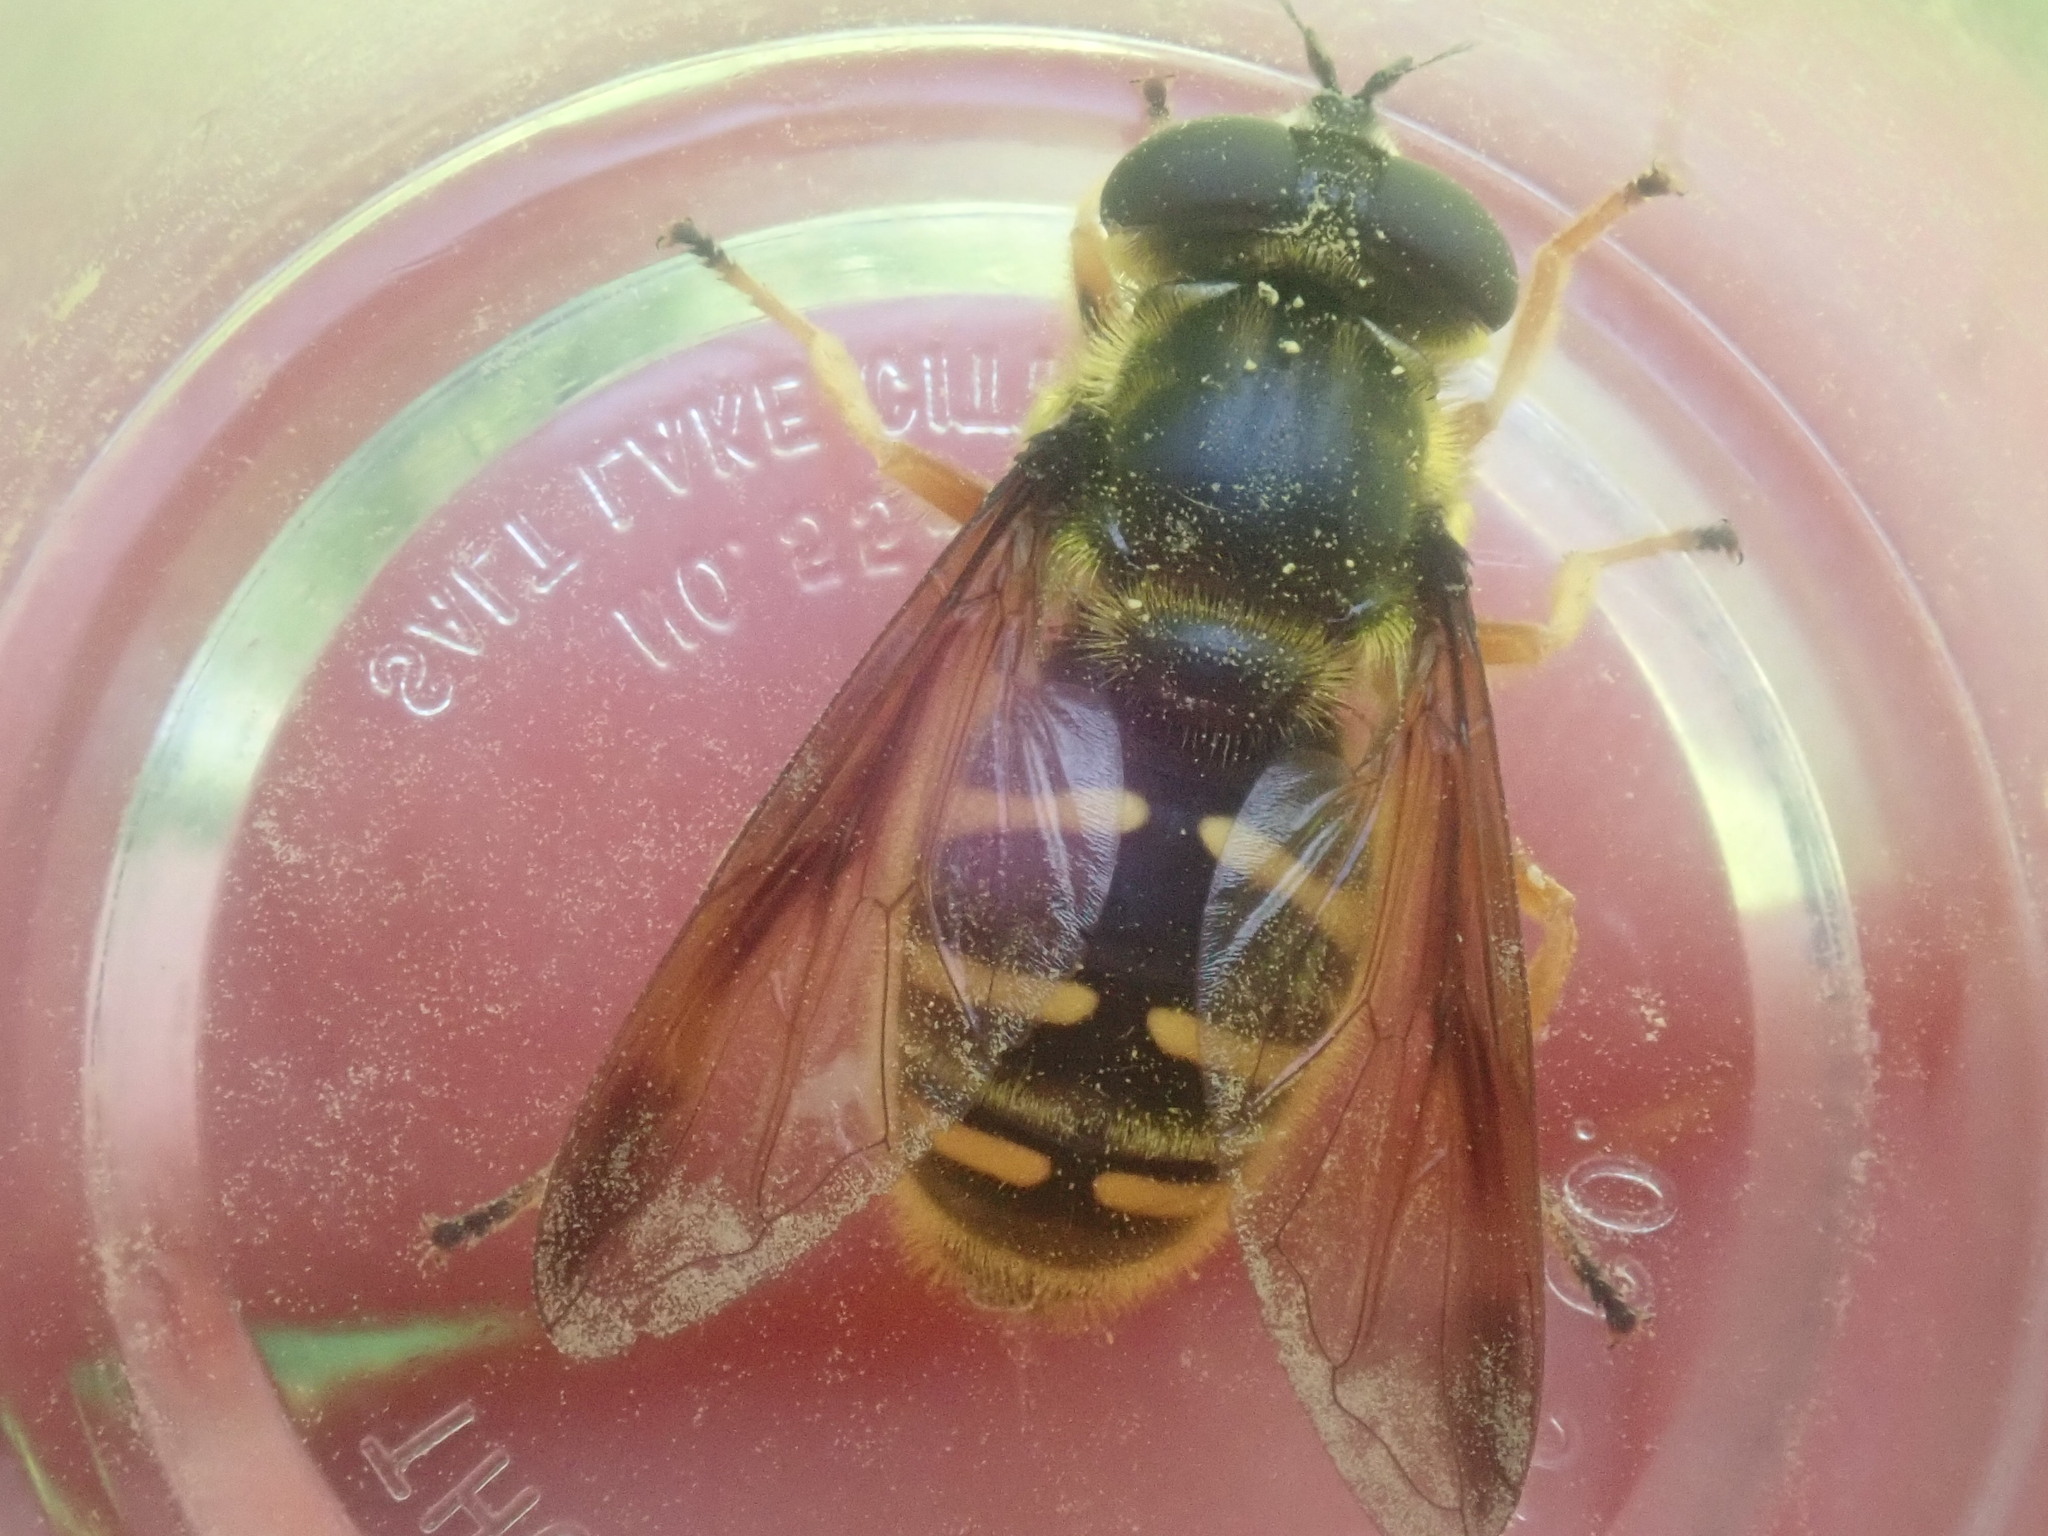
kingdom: Animalia
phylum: Arthropoda
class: Insecta
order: Diptera
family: Syrphidae
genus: Sericomyia
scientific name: Sericomyia chrysotoxoides
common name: Oblique-banded pond fly
